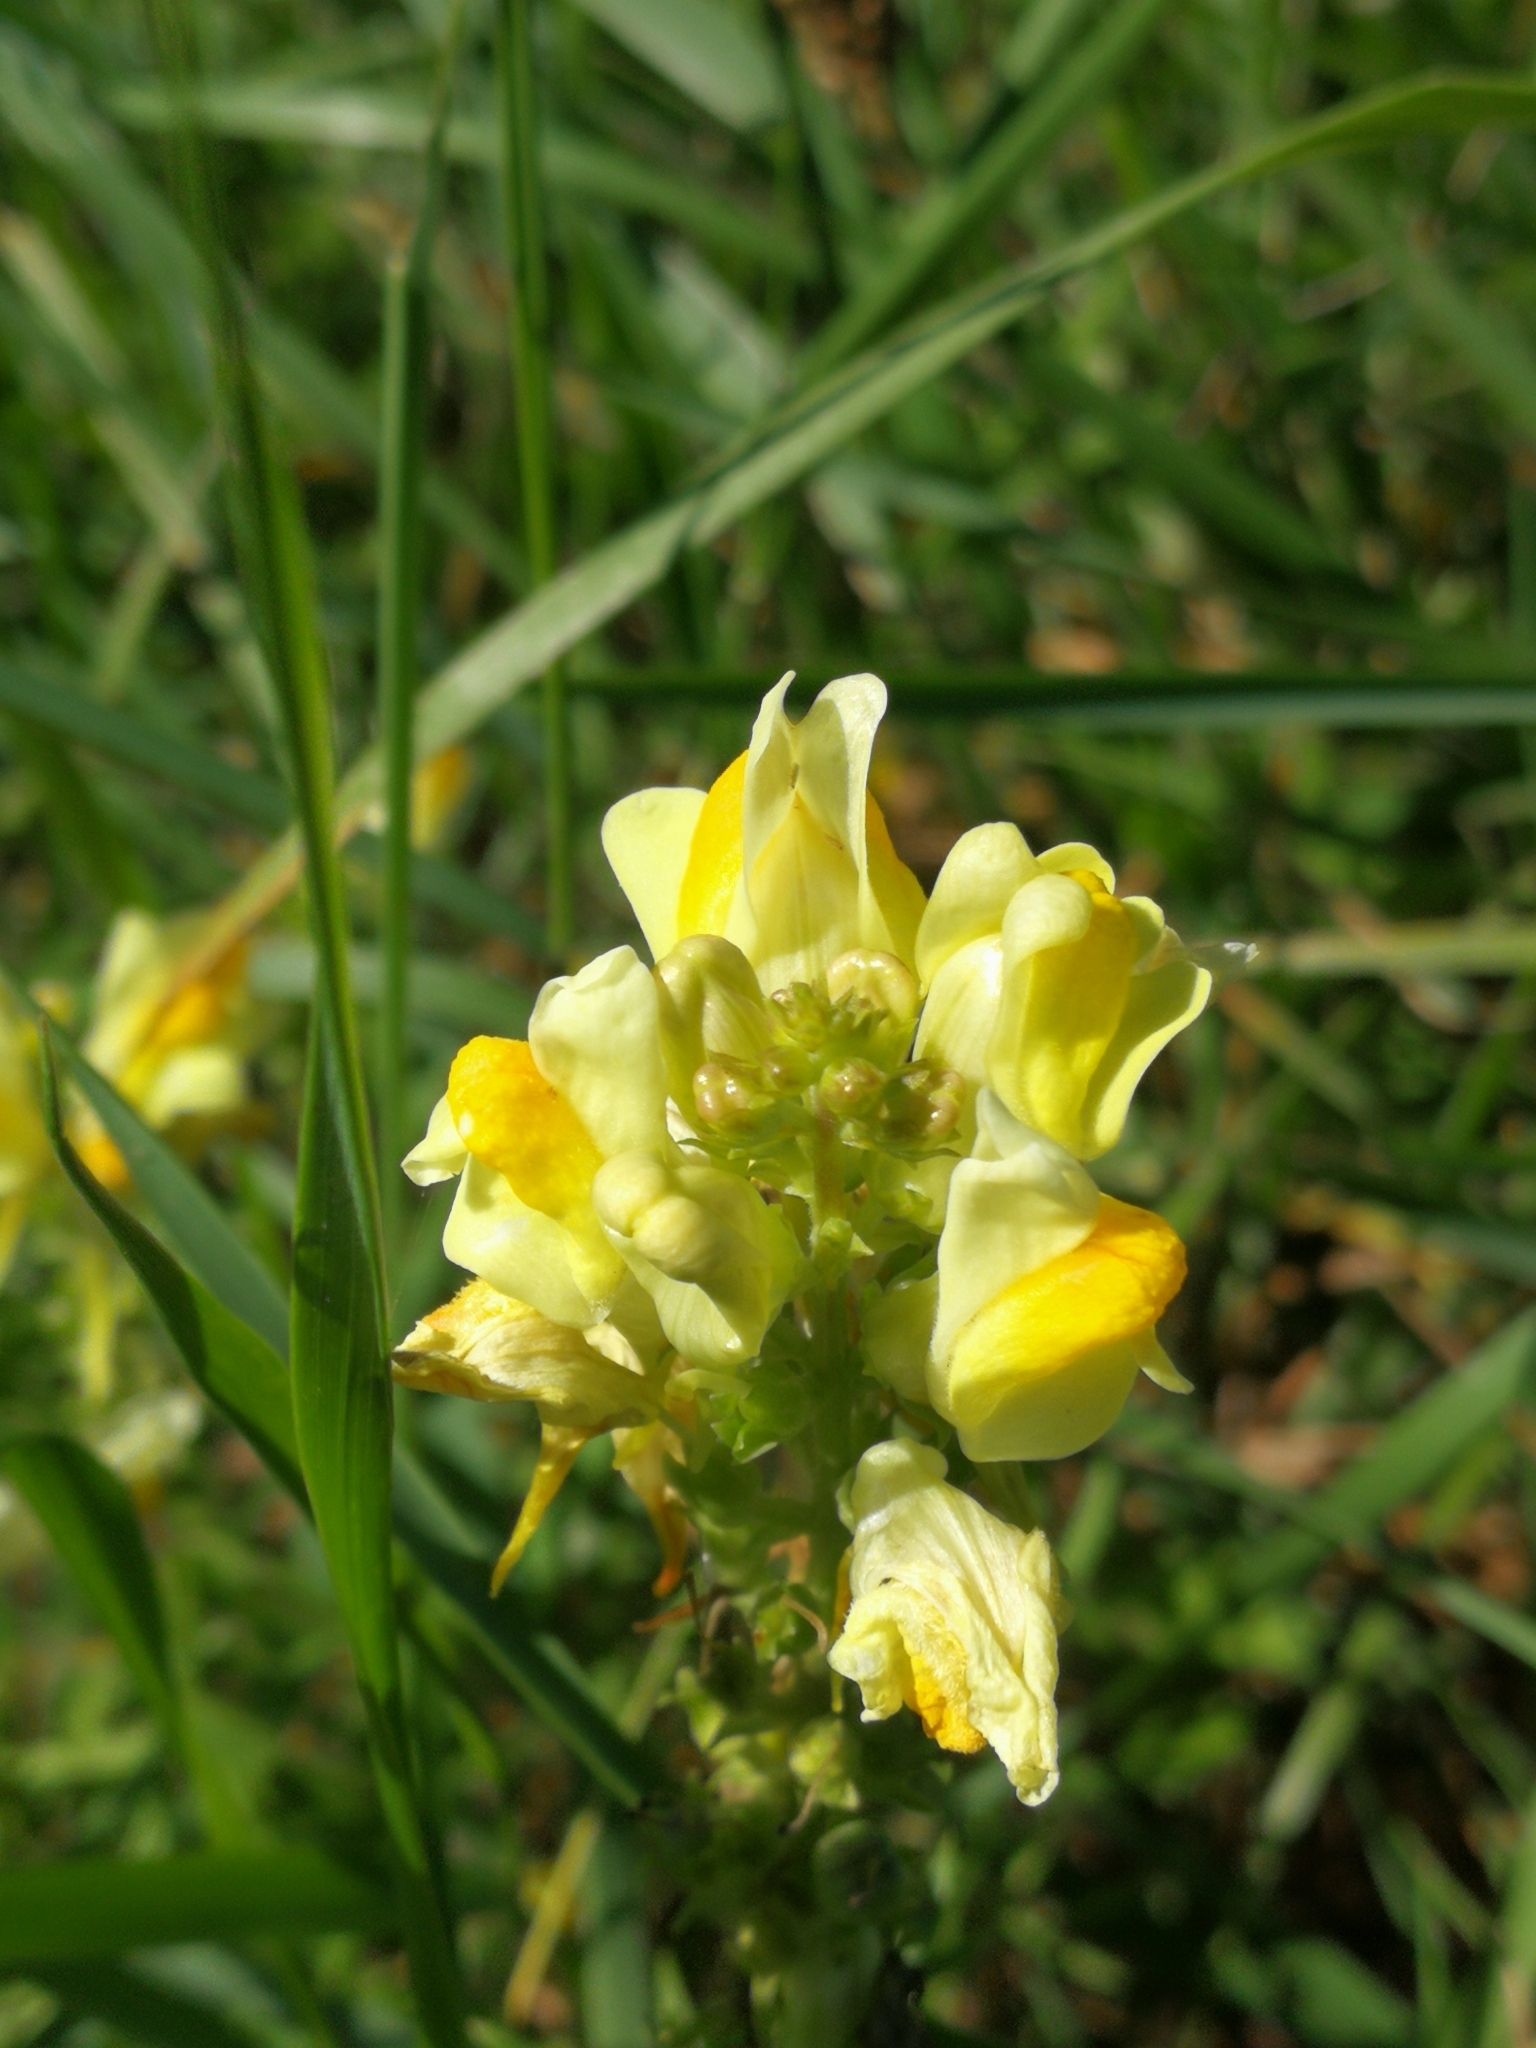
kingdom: Plantae
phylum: Tracheophyta
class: Magnoliopsida
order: Lamiales
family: Plantaginaceae
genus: Linaria
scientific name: Linaria vulgaris
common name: Butter and eggs
